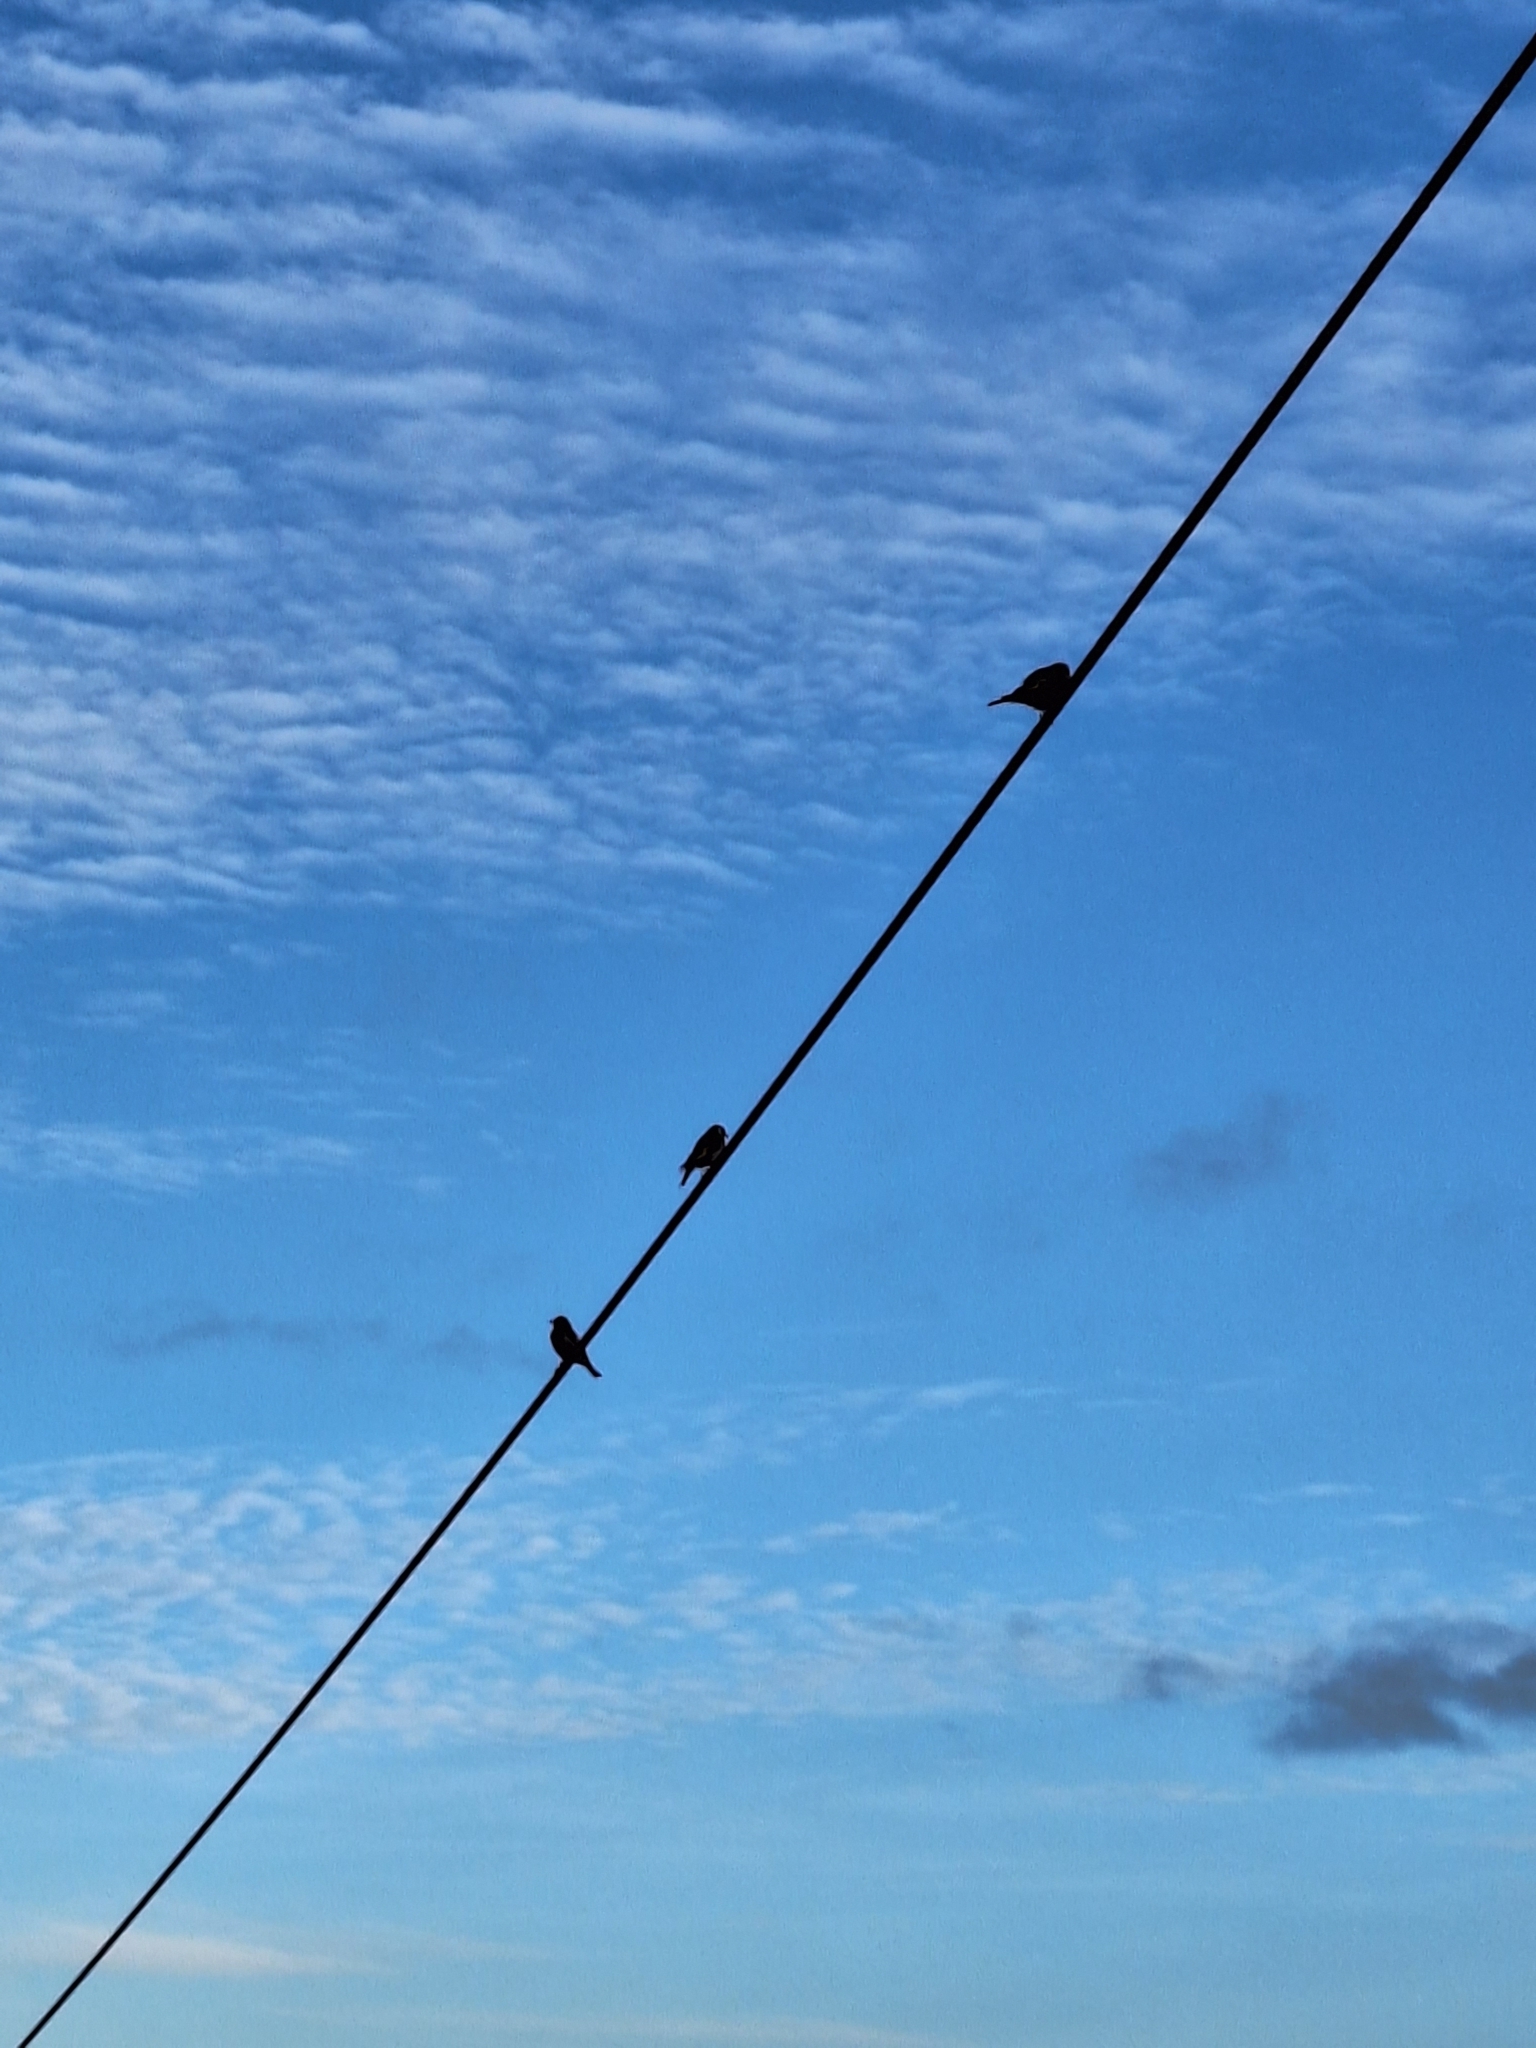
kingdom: Animalia
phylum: Chordata
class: Aves
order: Passeriformes
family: Fringillidae
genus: Fringilla
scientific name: Fringilla coelebs
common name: Common chaffinch
